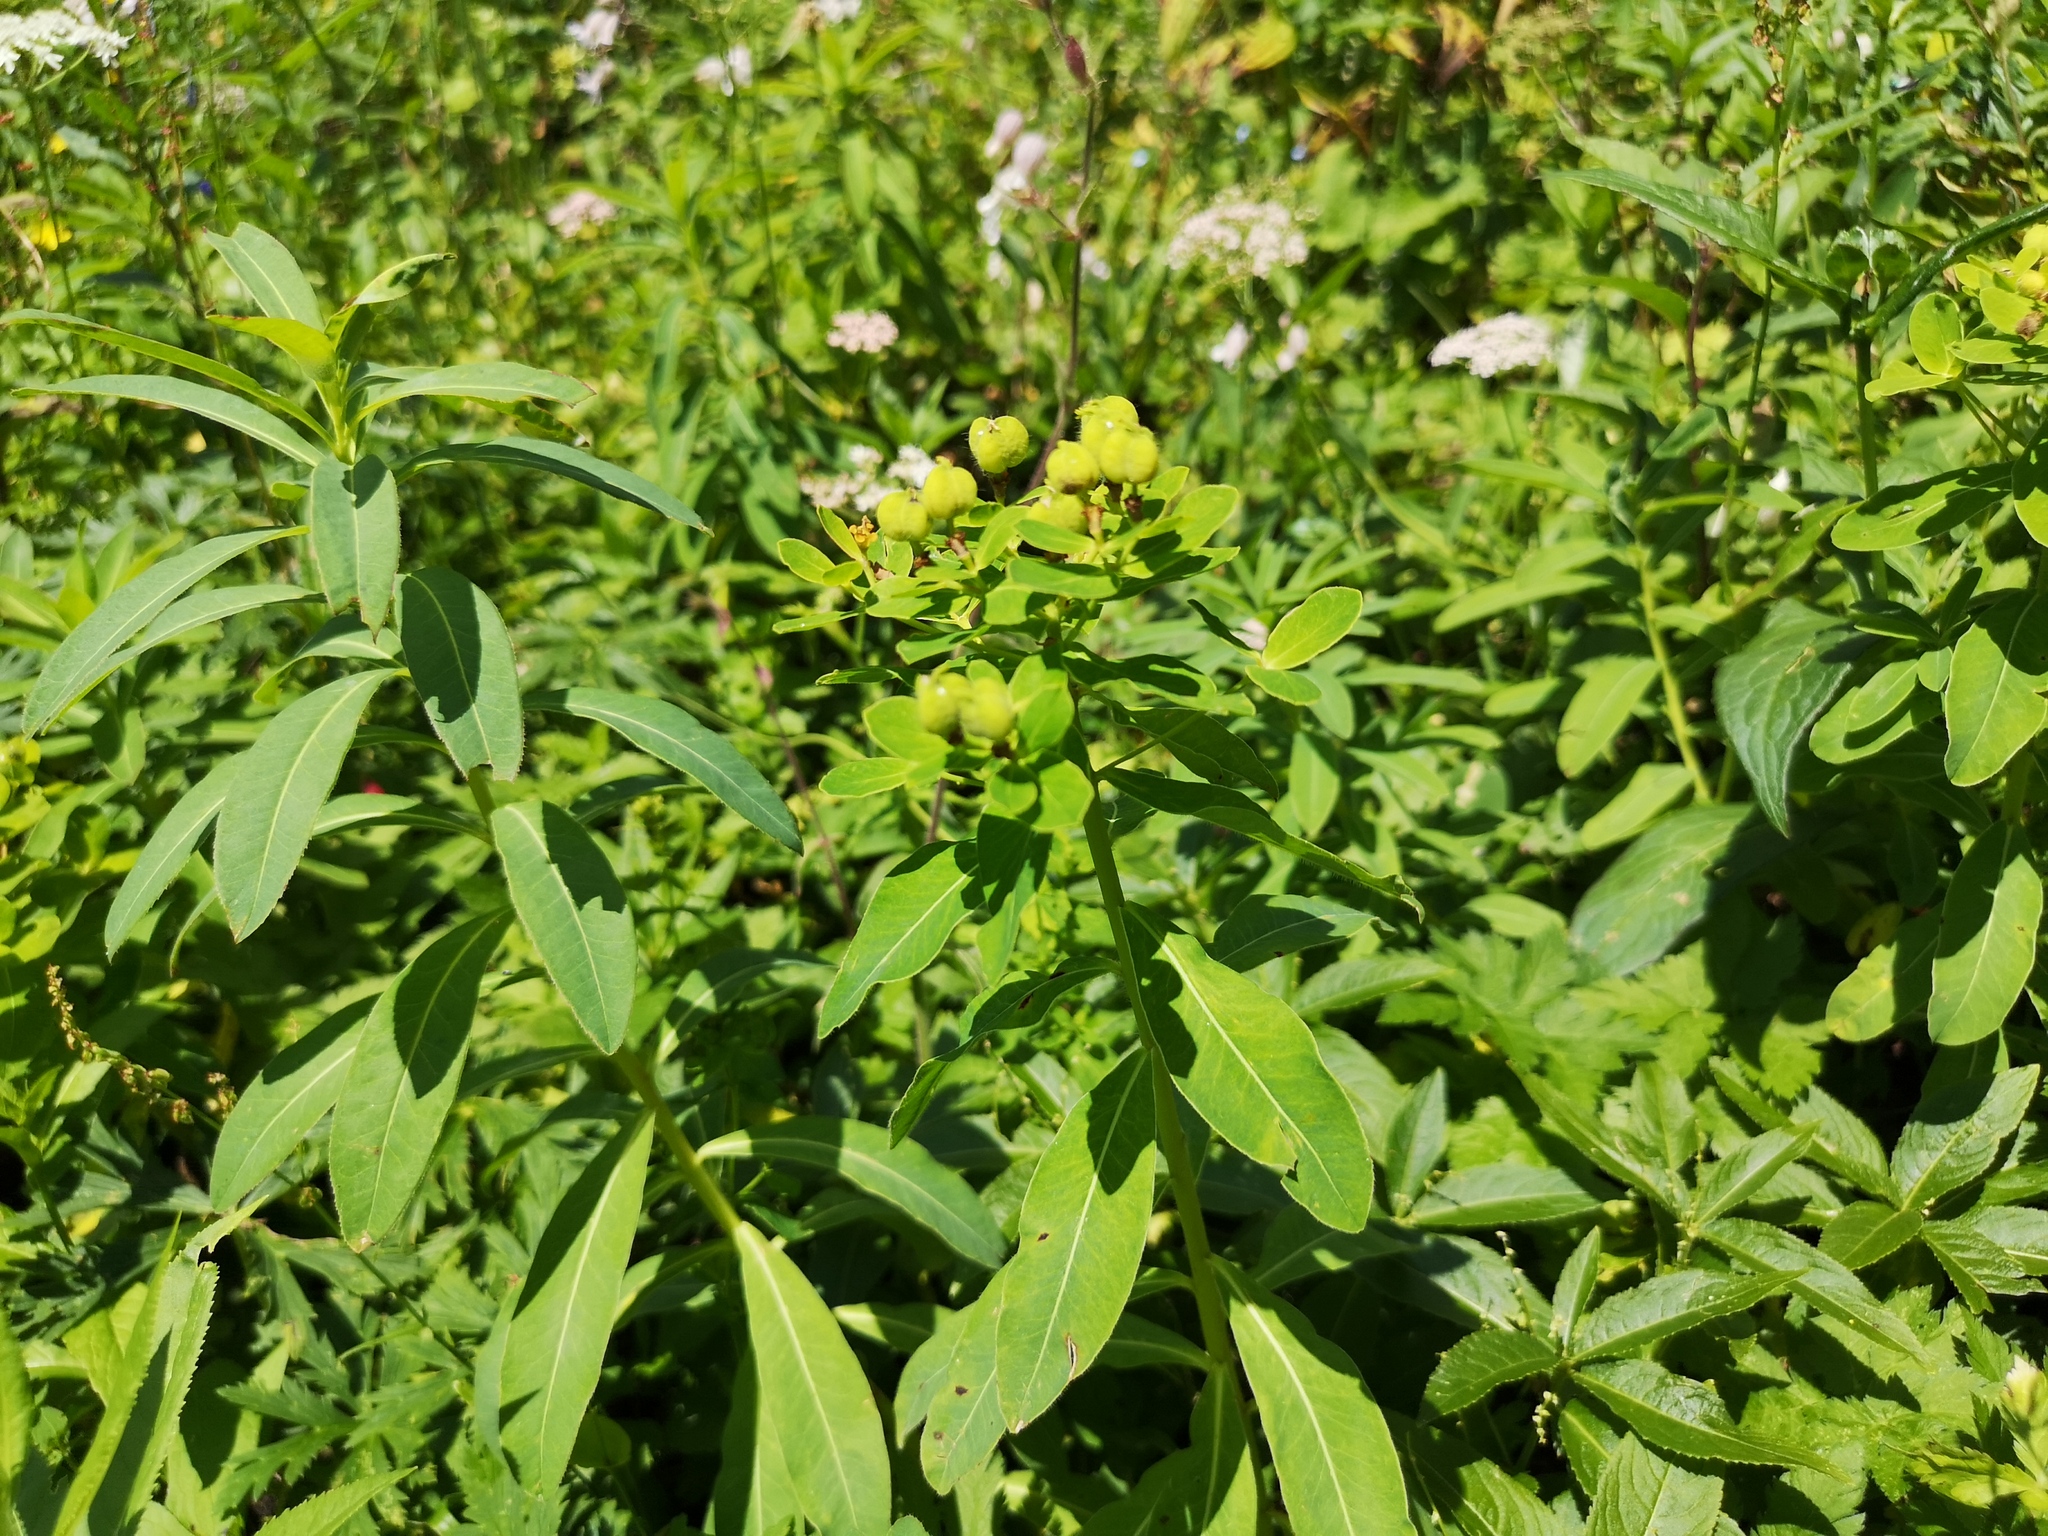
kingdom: Plantae
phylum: Tracheophyta
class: Magnoliopsida
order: Malpighiales
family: Euphorbiaceae
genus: Euphorbia
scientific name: Euphorbia austriaca
